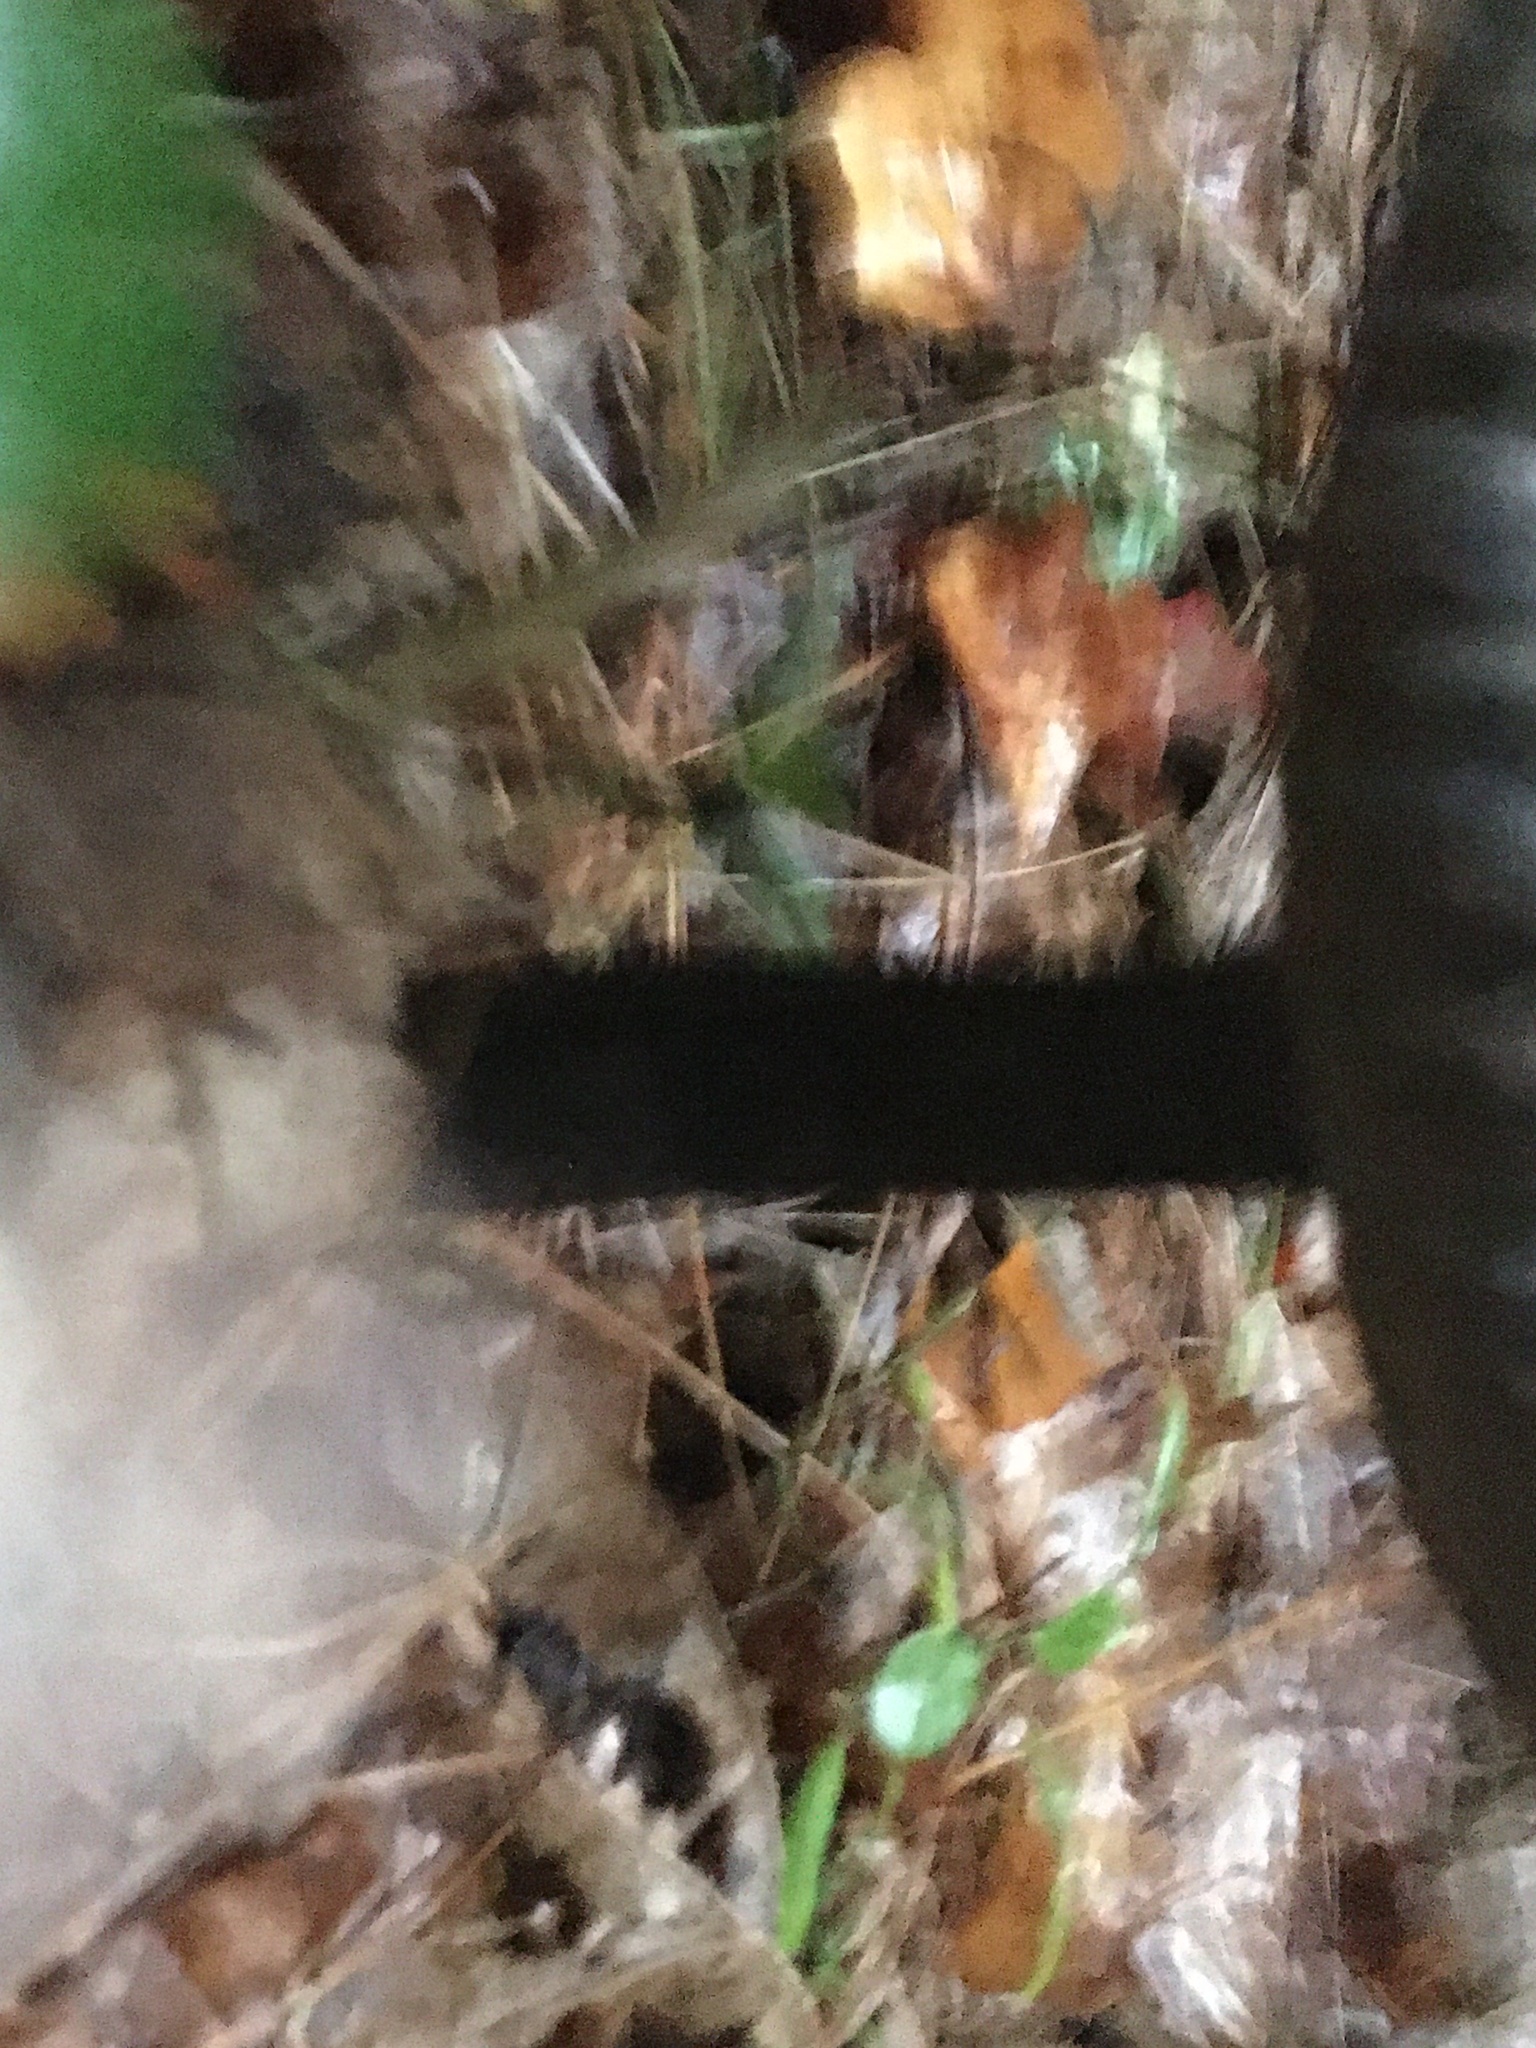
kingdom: Fungi
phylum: Basidiomycota
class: Agaricomycetes
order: Boletales
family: Boletaceae
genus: Strobilomyces
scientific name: Strobilomyces strobilaceus
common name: Old man of the woods
